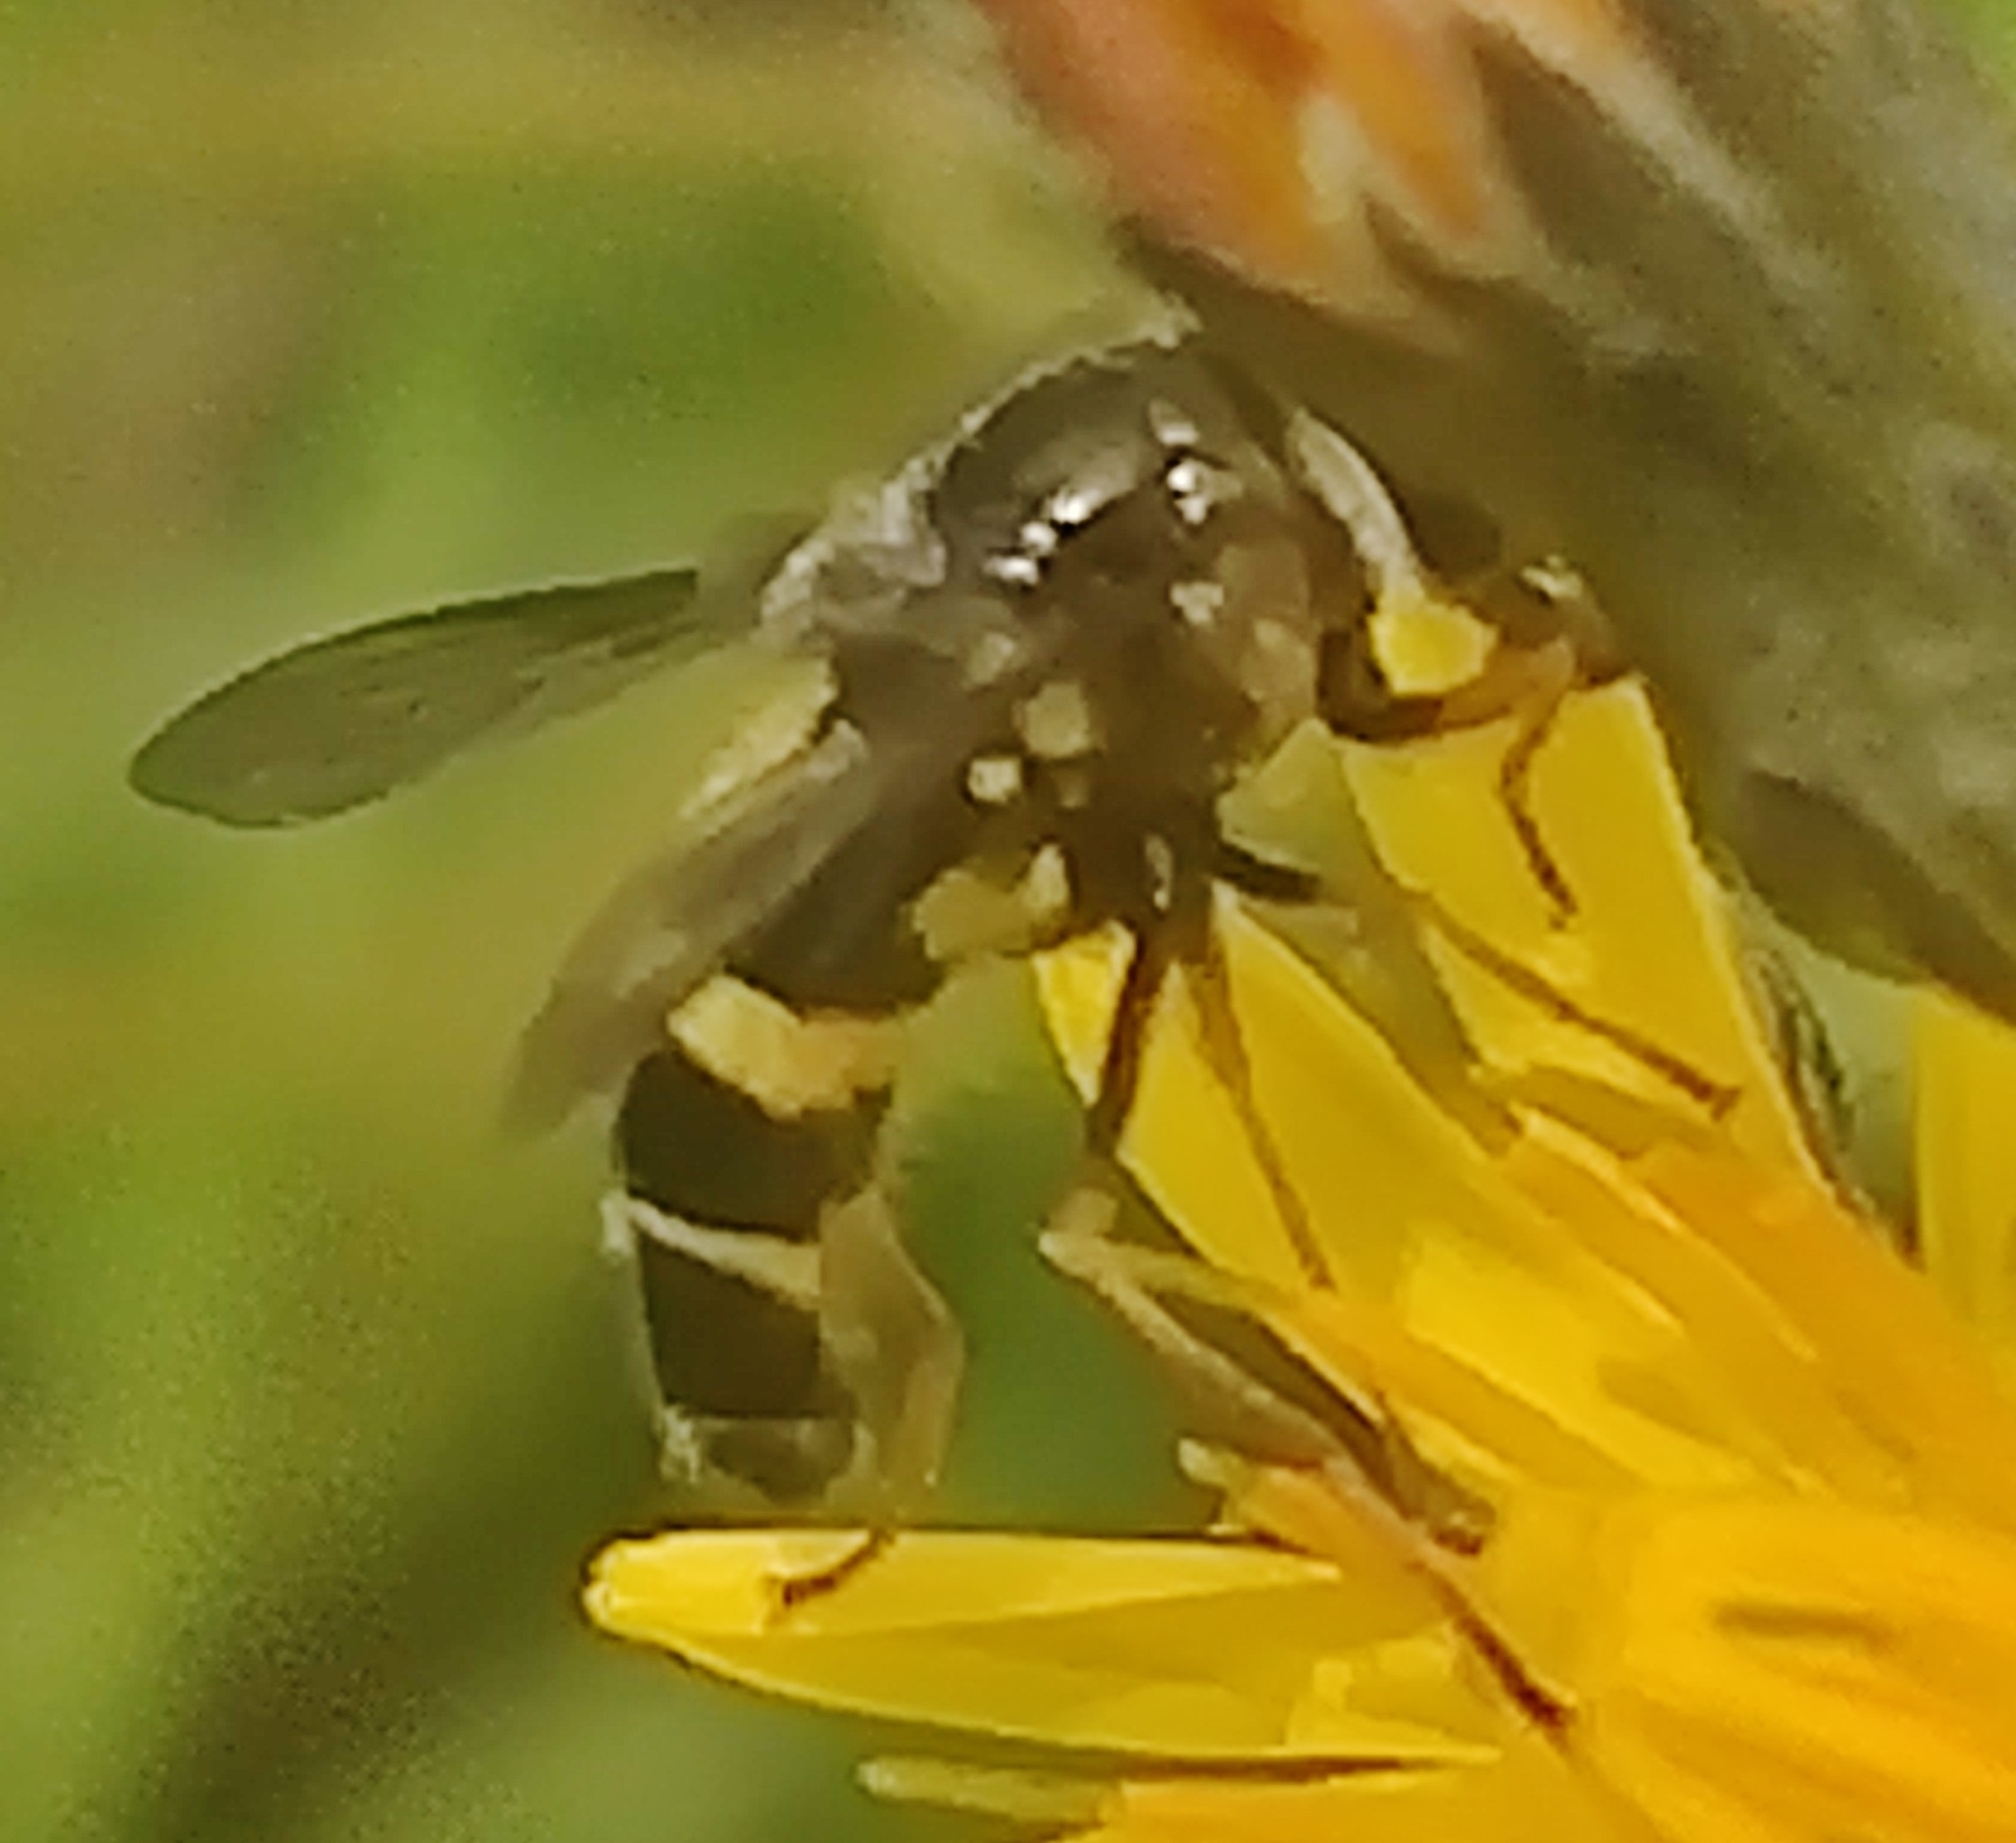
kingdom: Animalia
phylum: Arthropoda
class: Insecta
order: Diptera
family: Syrphidae
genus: Dasysyrphus
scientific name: Dasysyrphus tricinctus
